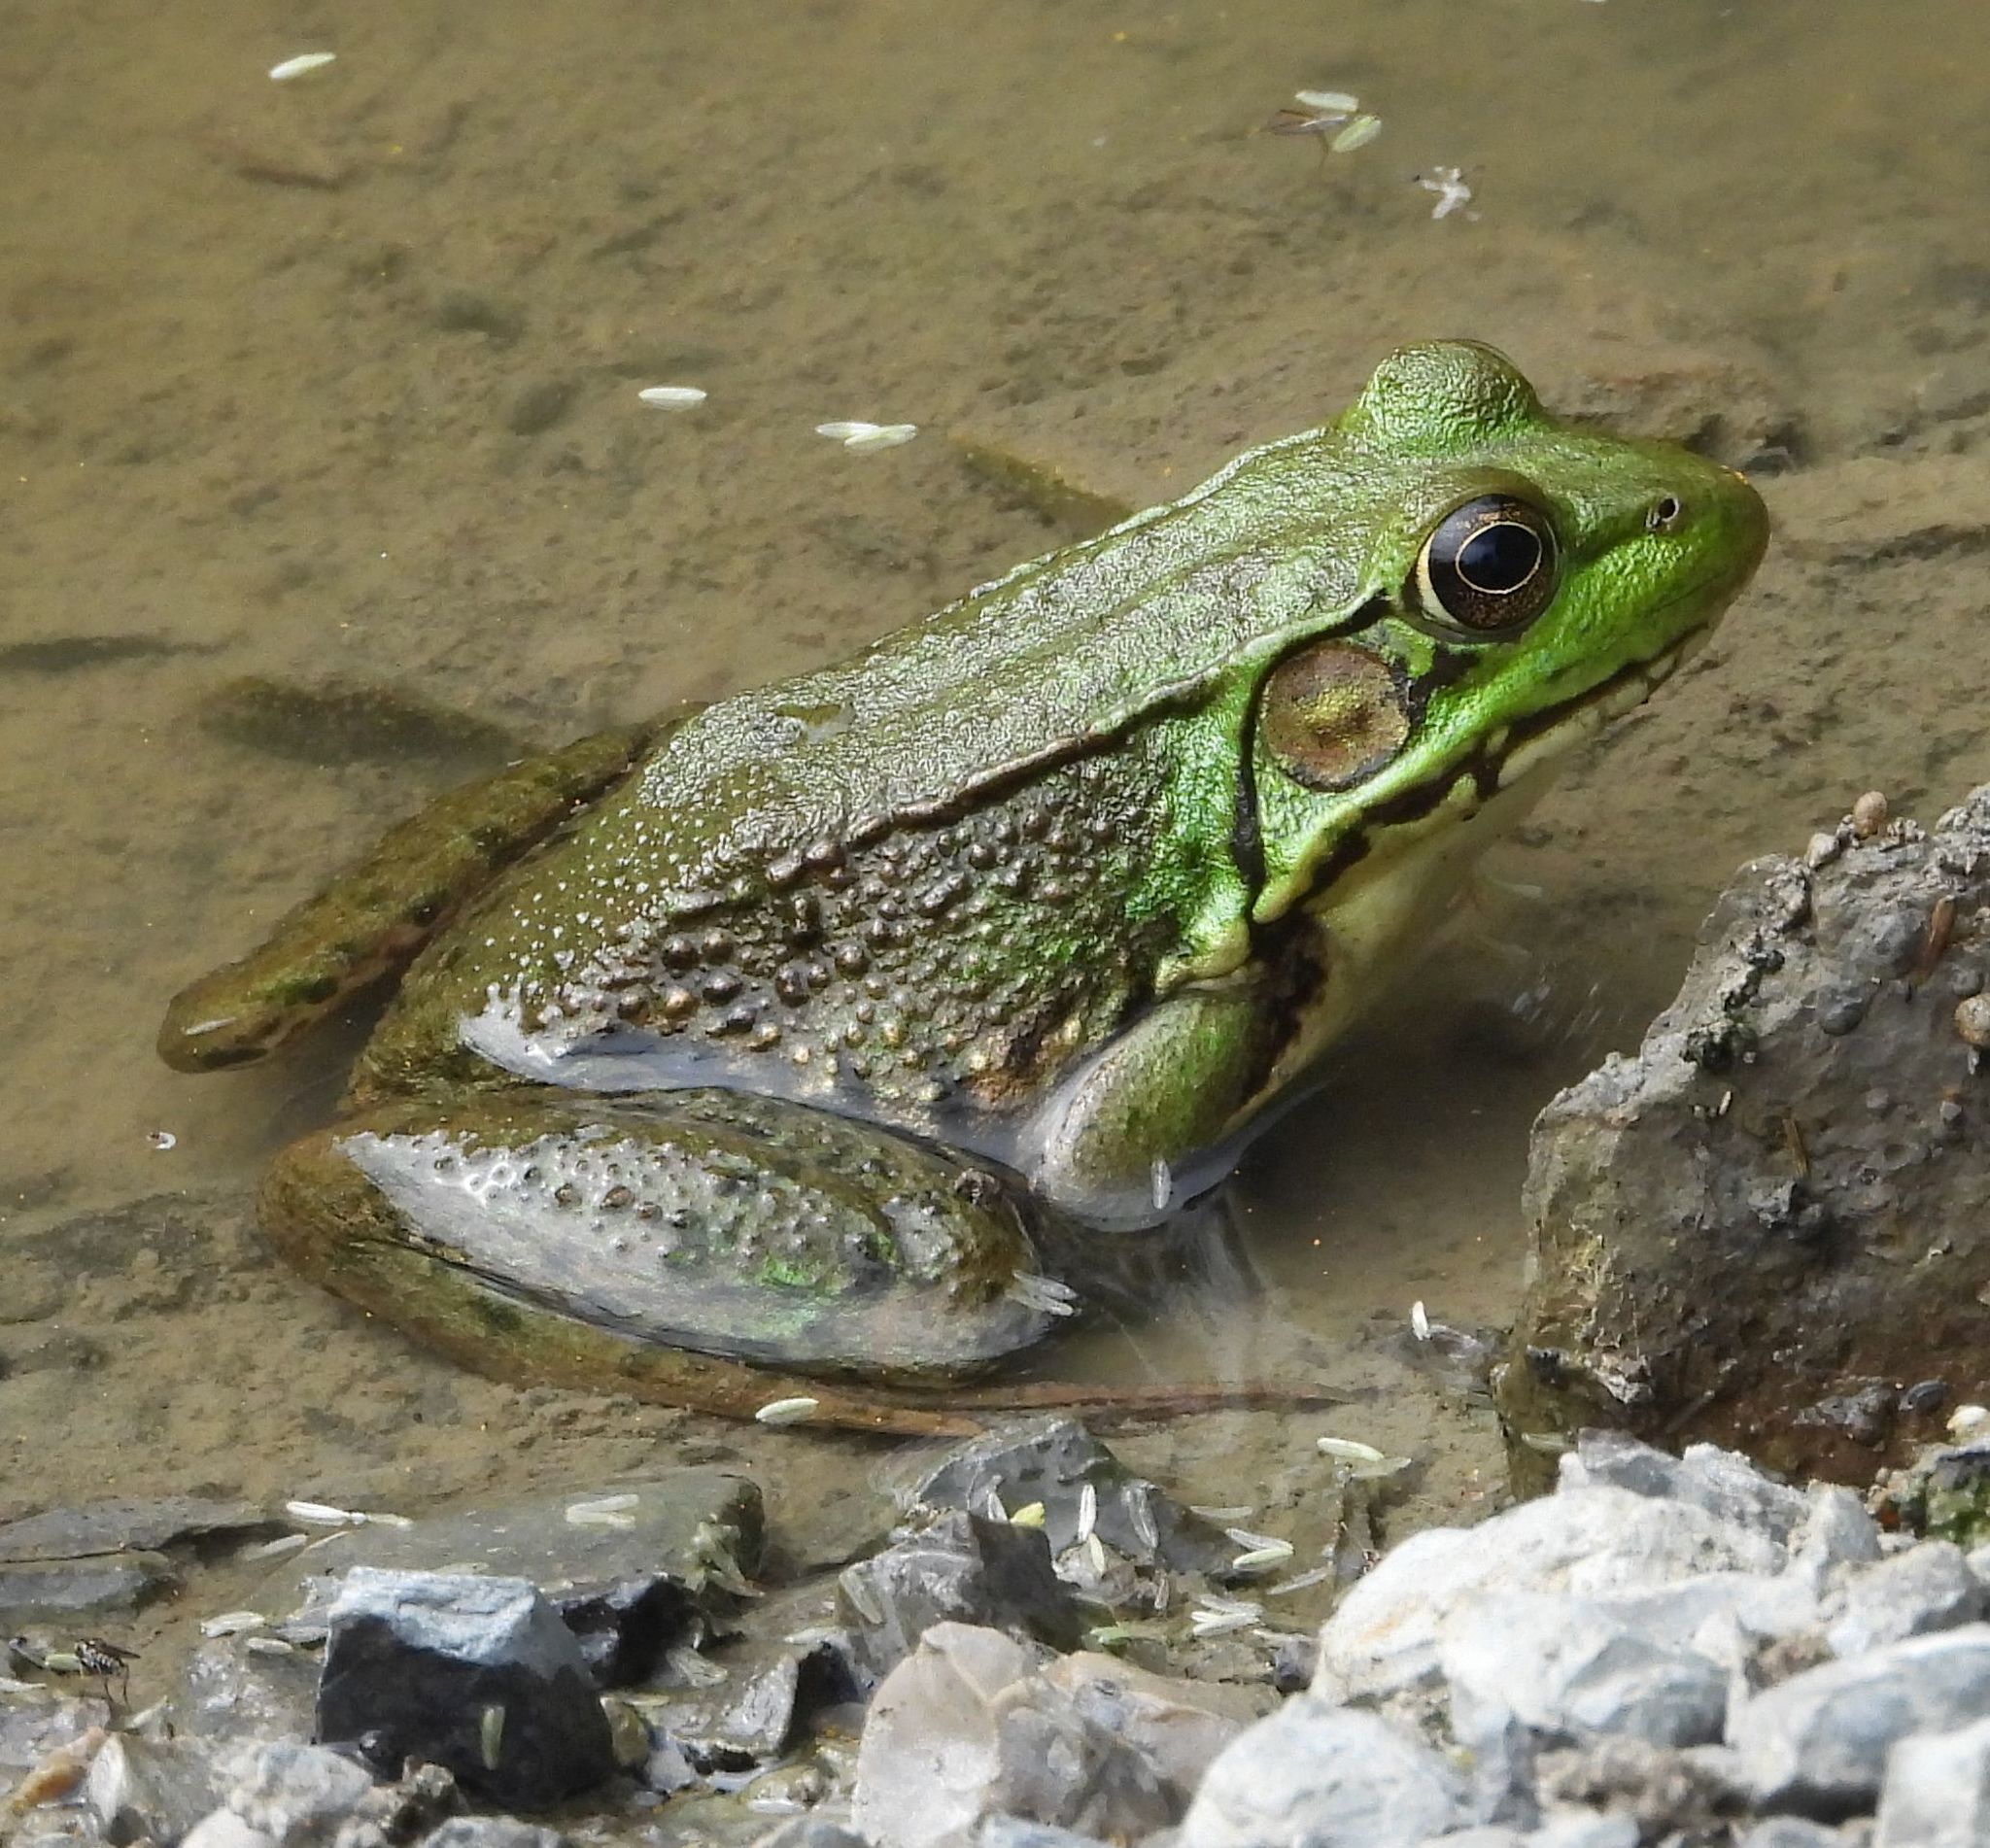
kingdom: Animalia
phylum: Chordata
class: Amphibia
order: Anura
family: Ranidae
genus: Lithobates
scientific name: Lithobates clamitans
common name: Green frog
